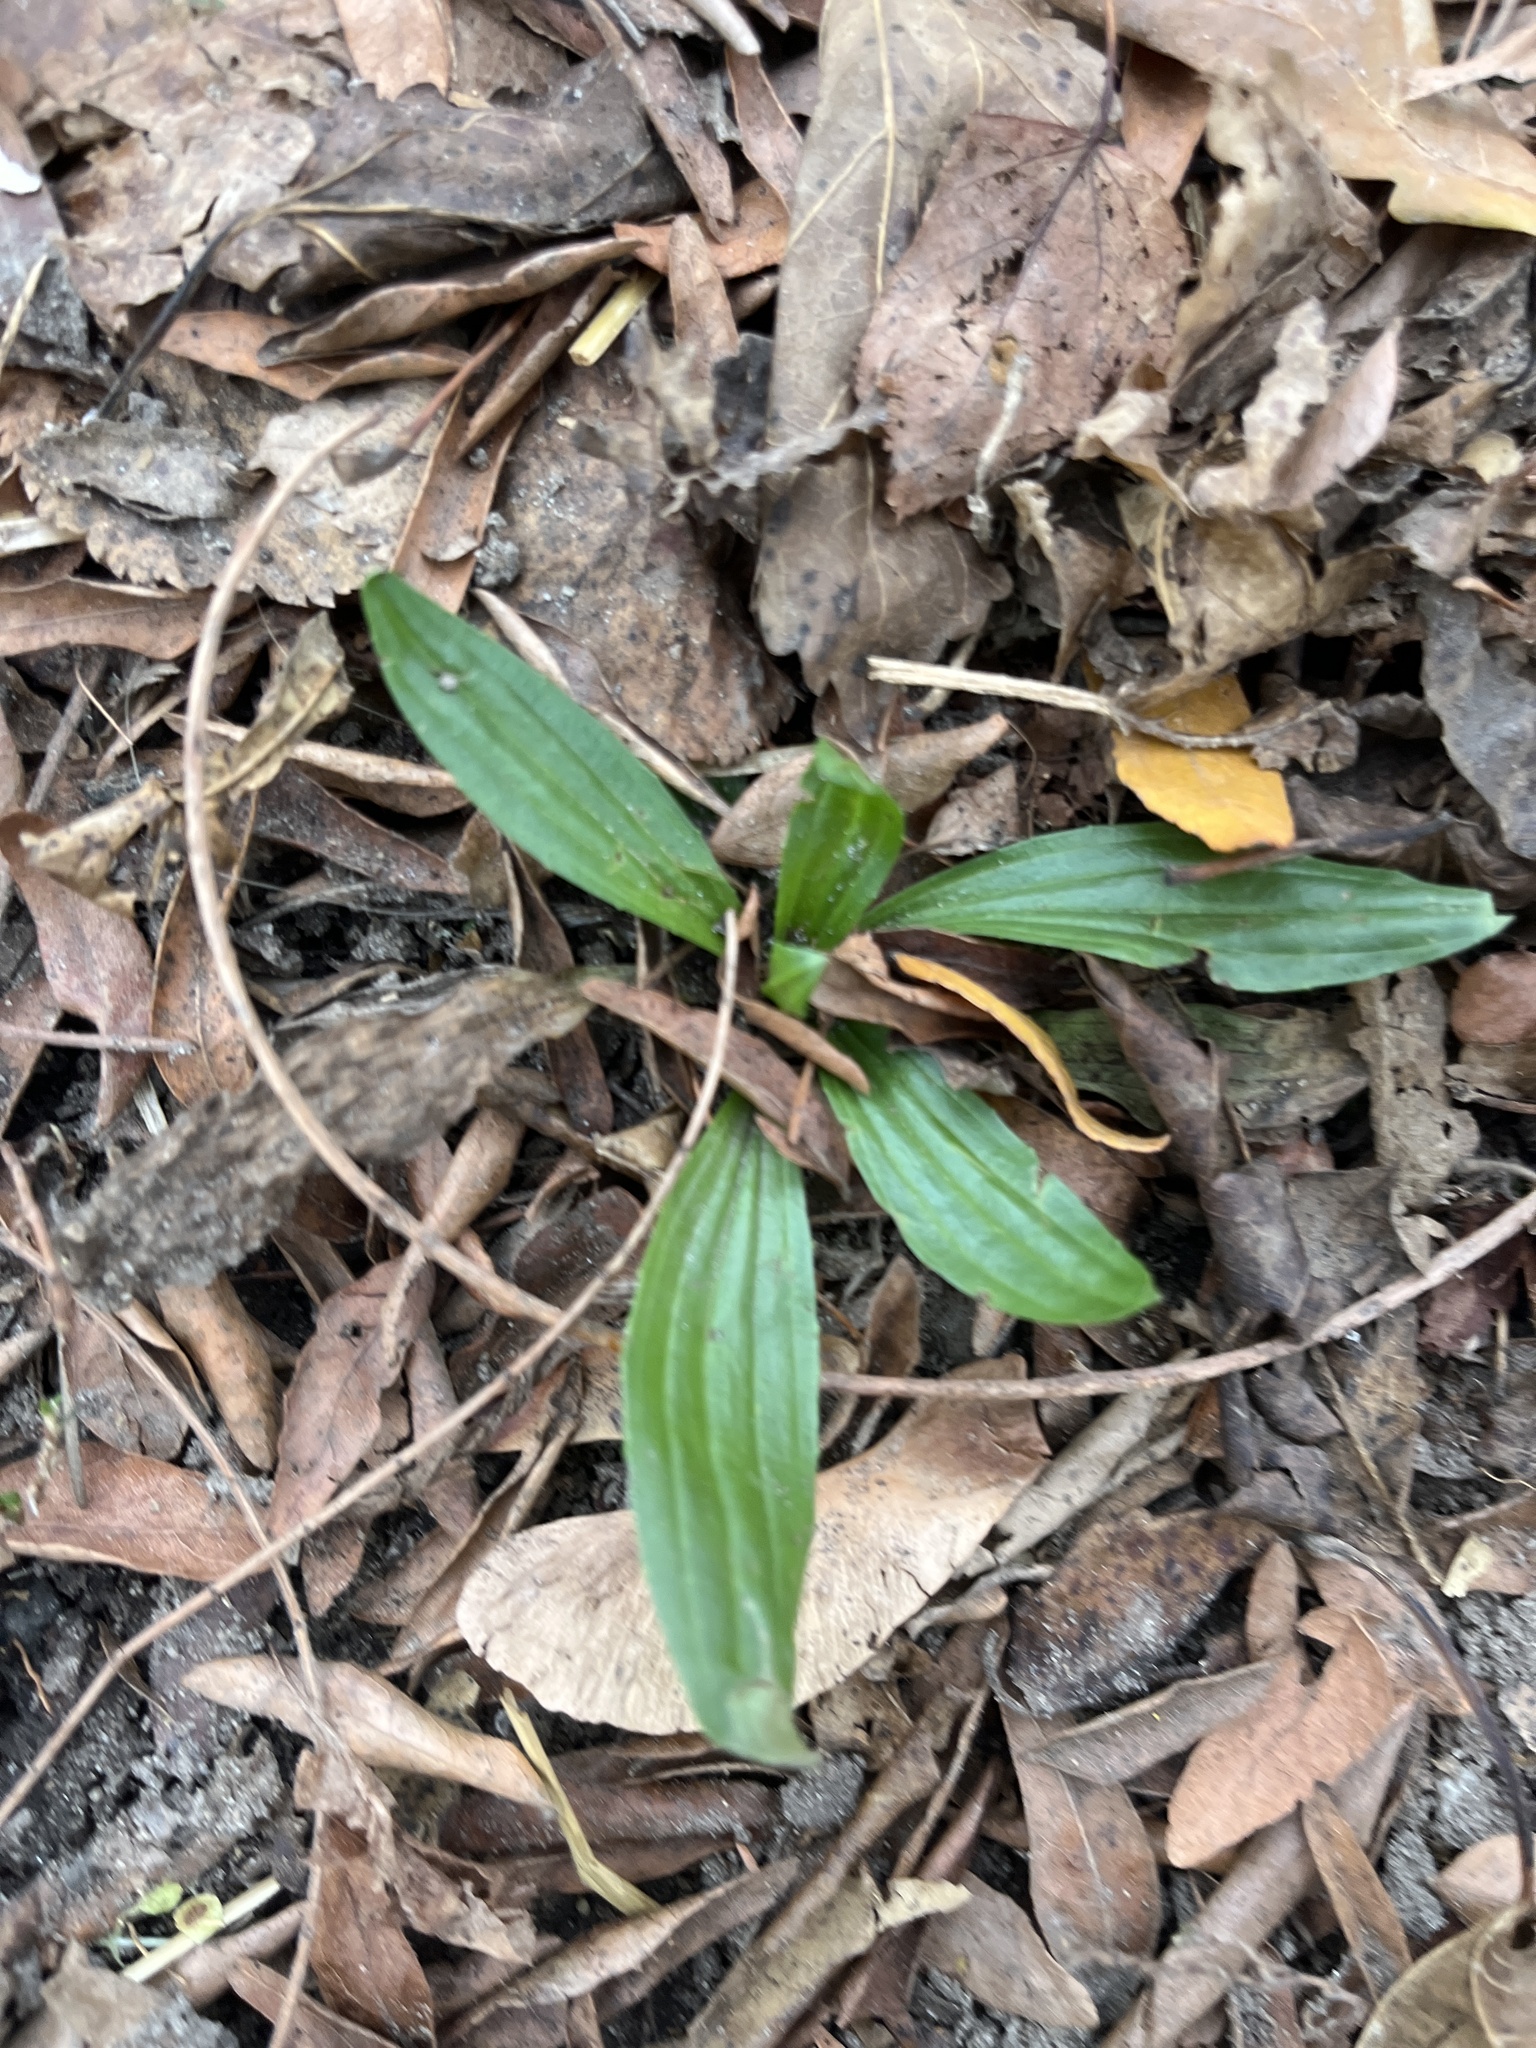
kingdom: Plantae
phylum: Tracheophyta
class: Magnoliopsida
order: Lamiales
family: Plantaginaceae
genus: Plantago
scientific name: Plantago lanceolata
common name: Ribwort plantain
